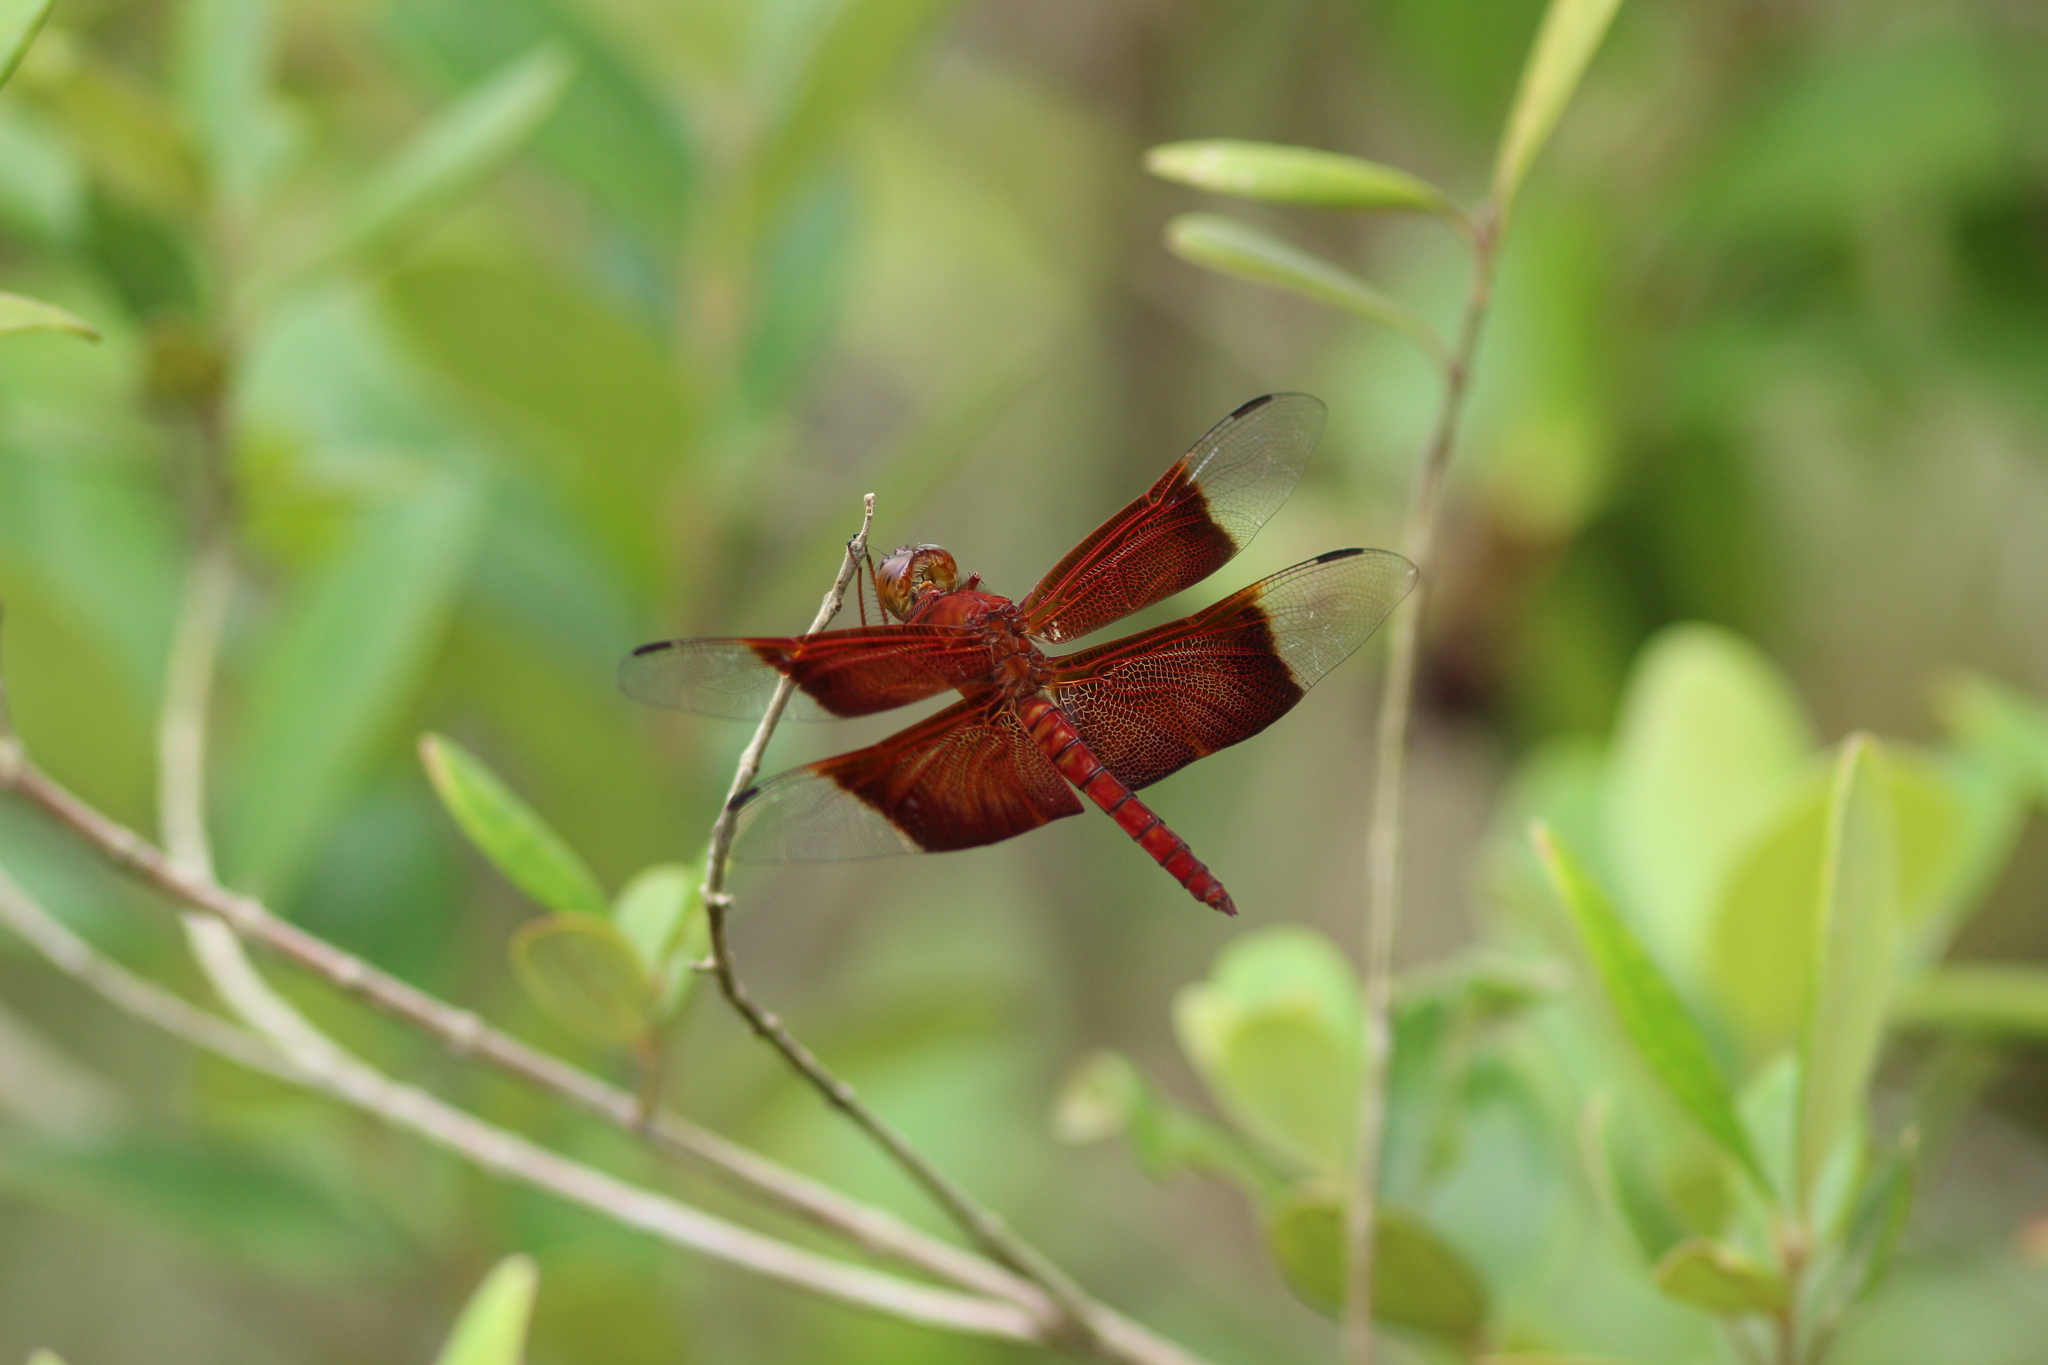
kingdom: Animalia
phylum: Arthropoda
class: Insecta
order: Odonata
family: Libellulidae
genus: Camacinia
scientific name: Camacinia gigantea
